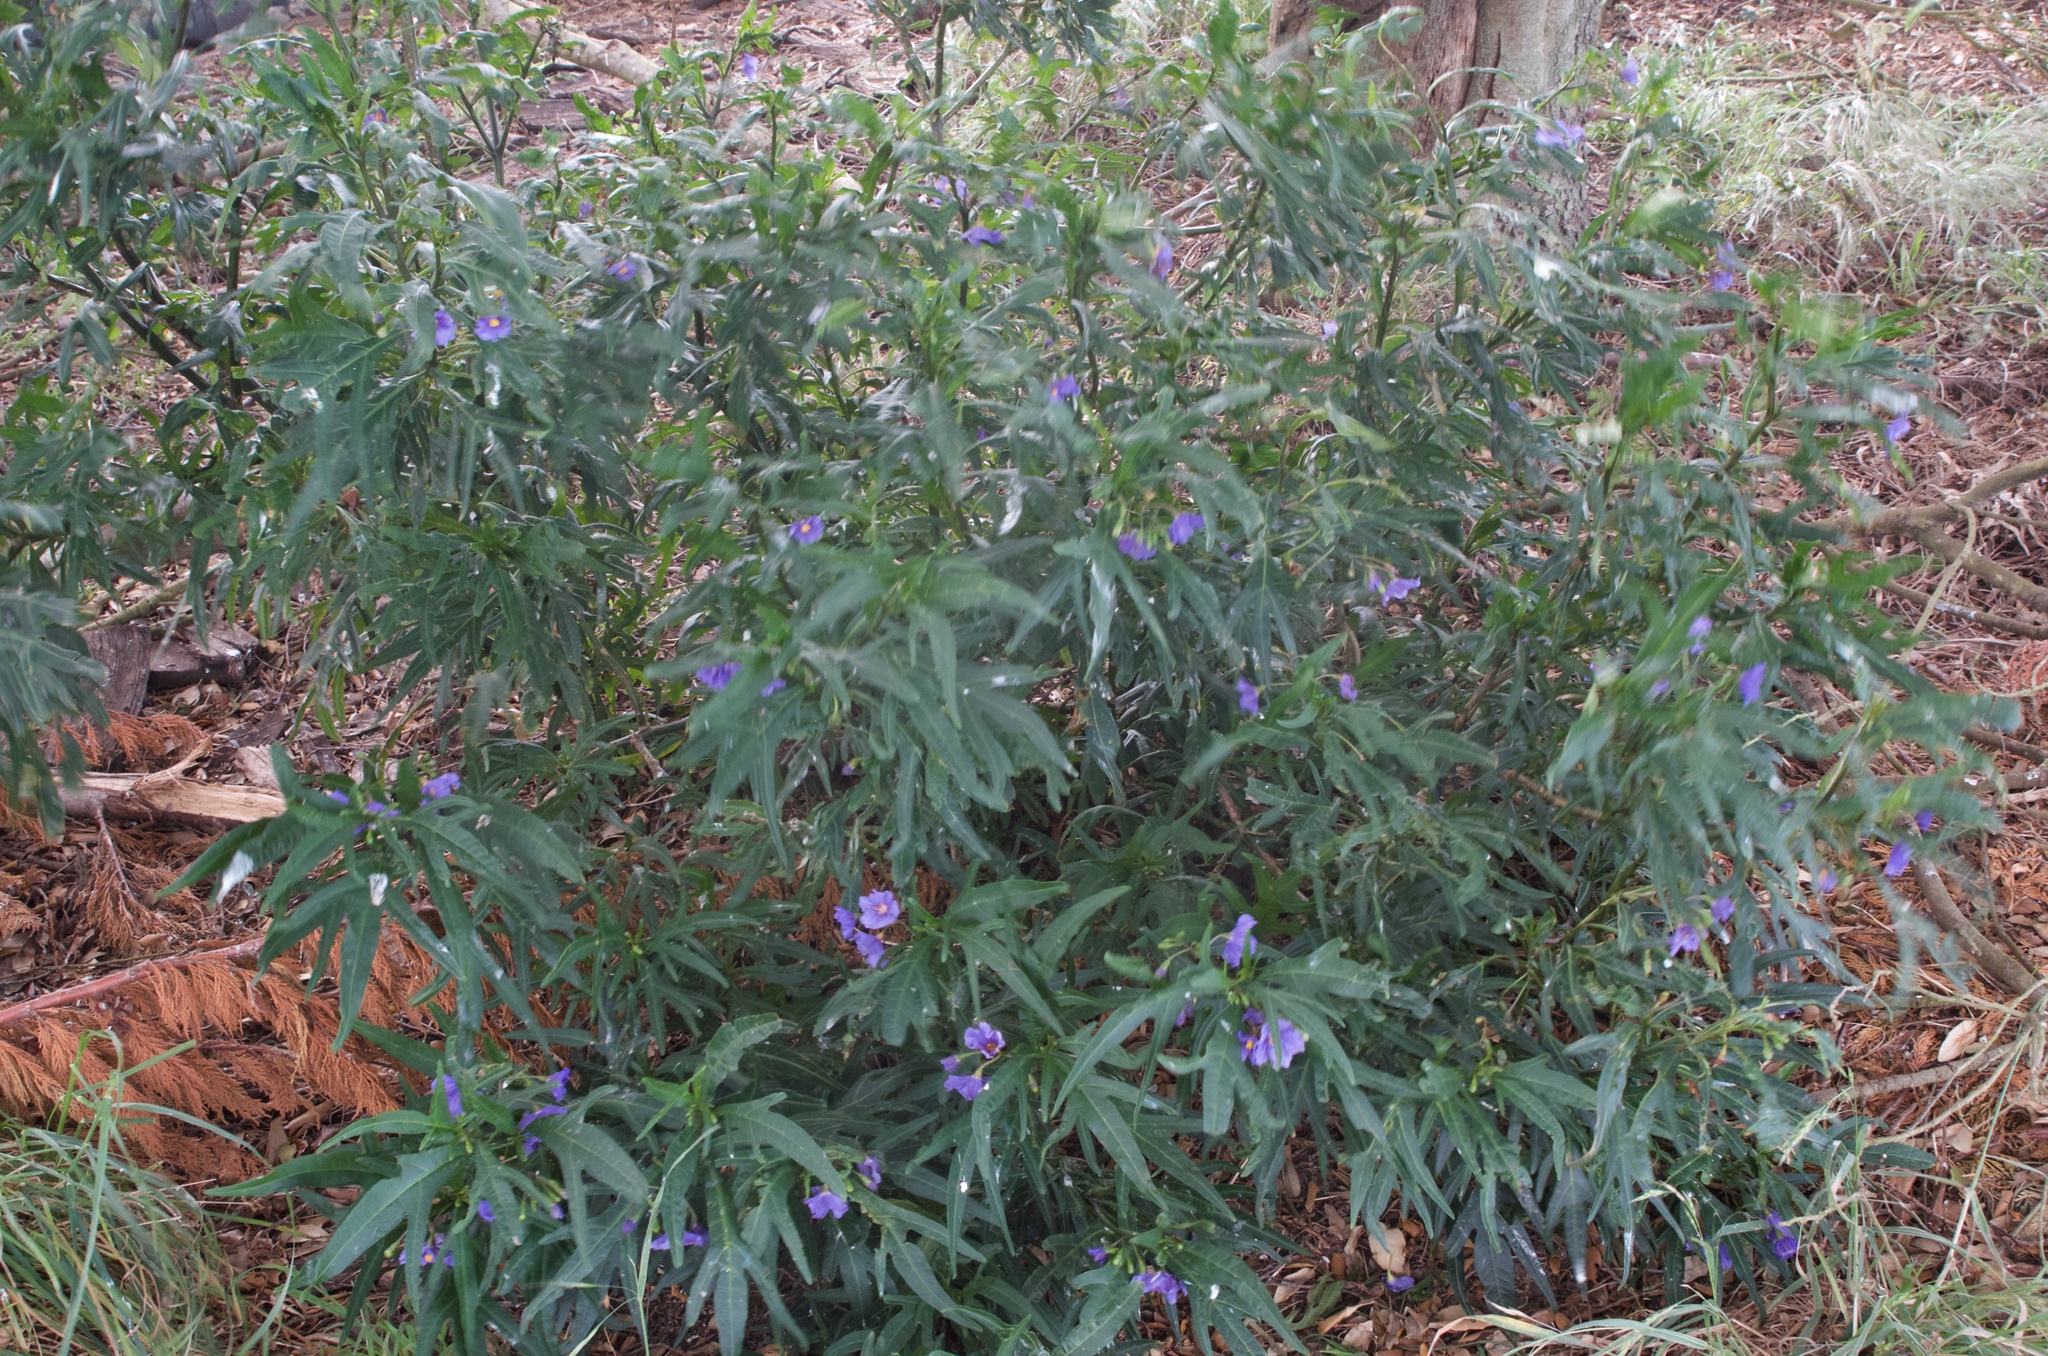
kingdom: Plantae
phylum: Tracheophyta
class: Magnoliopsida
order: Solanales
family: Solanaceae
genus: Solanum
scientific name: Solanum laciniatum
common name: Kangaroo-apple
